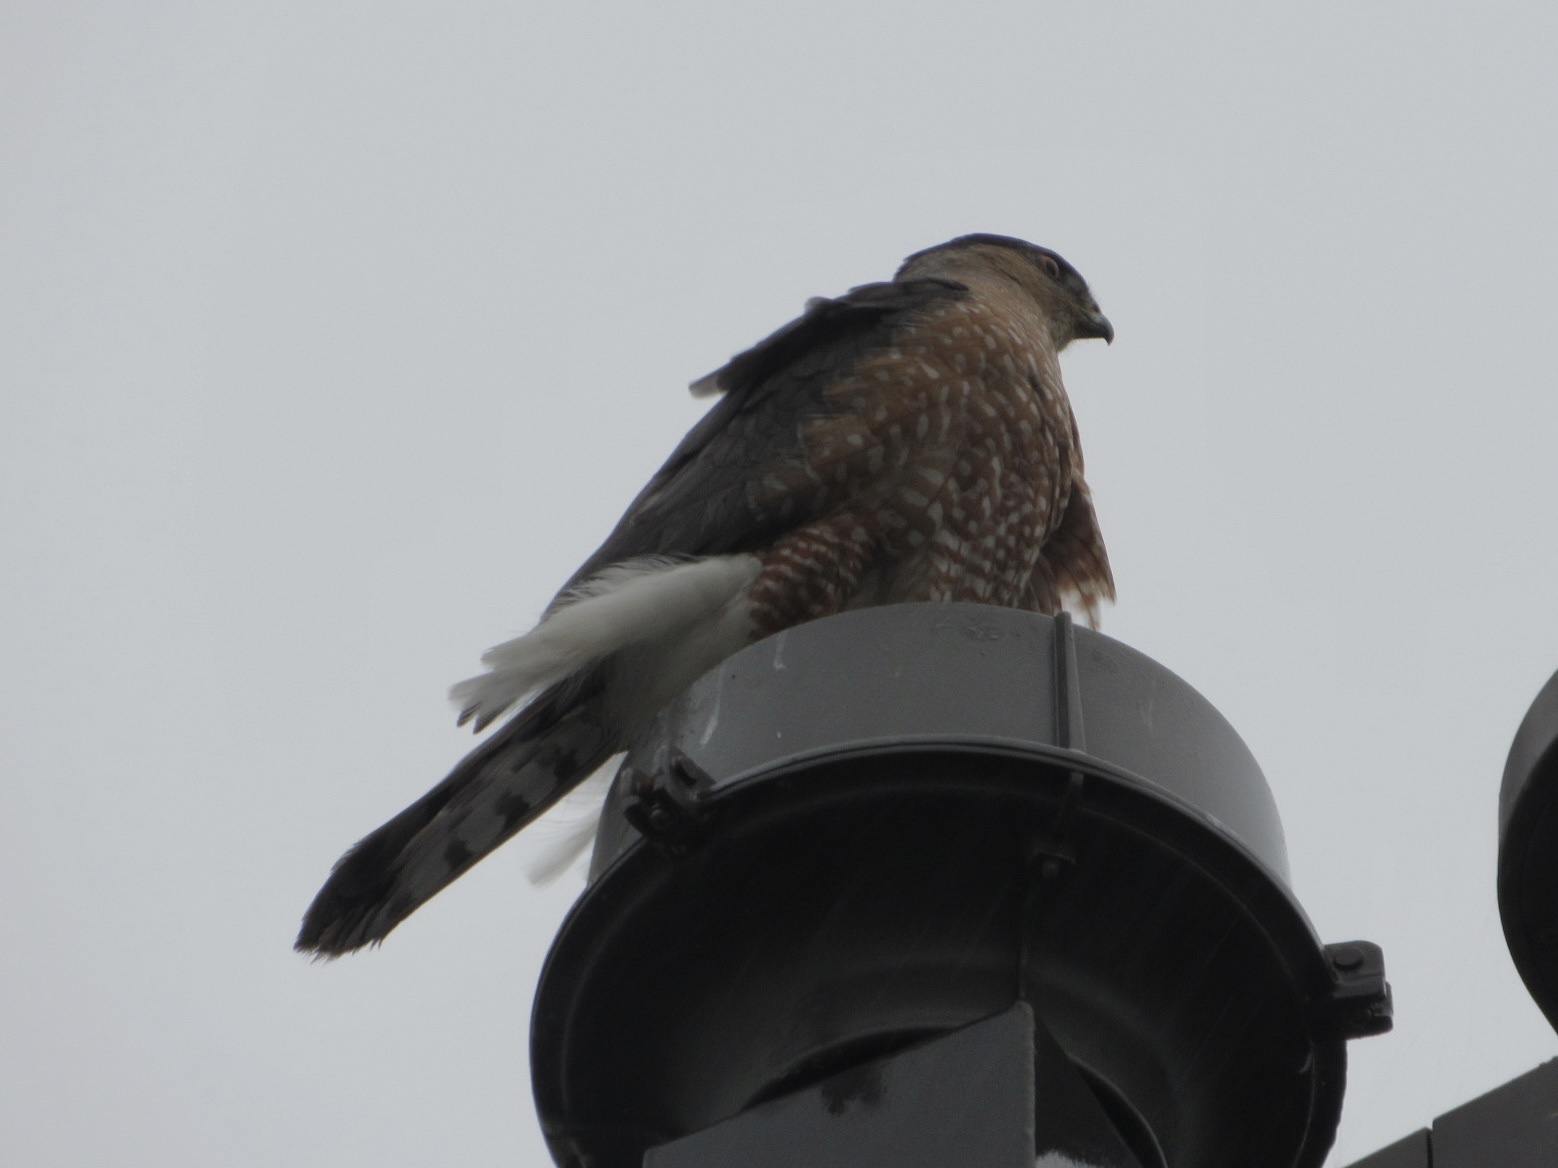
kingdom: Animalia
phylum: Chordata
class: Aves
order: Accipitriformes
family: Accipitridae
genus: Accipiter
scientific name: Accipiter cooperii
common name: Cooper's hawk
